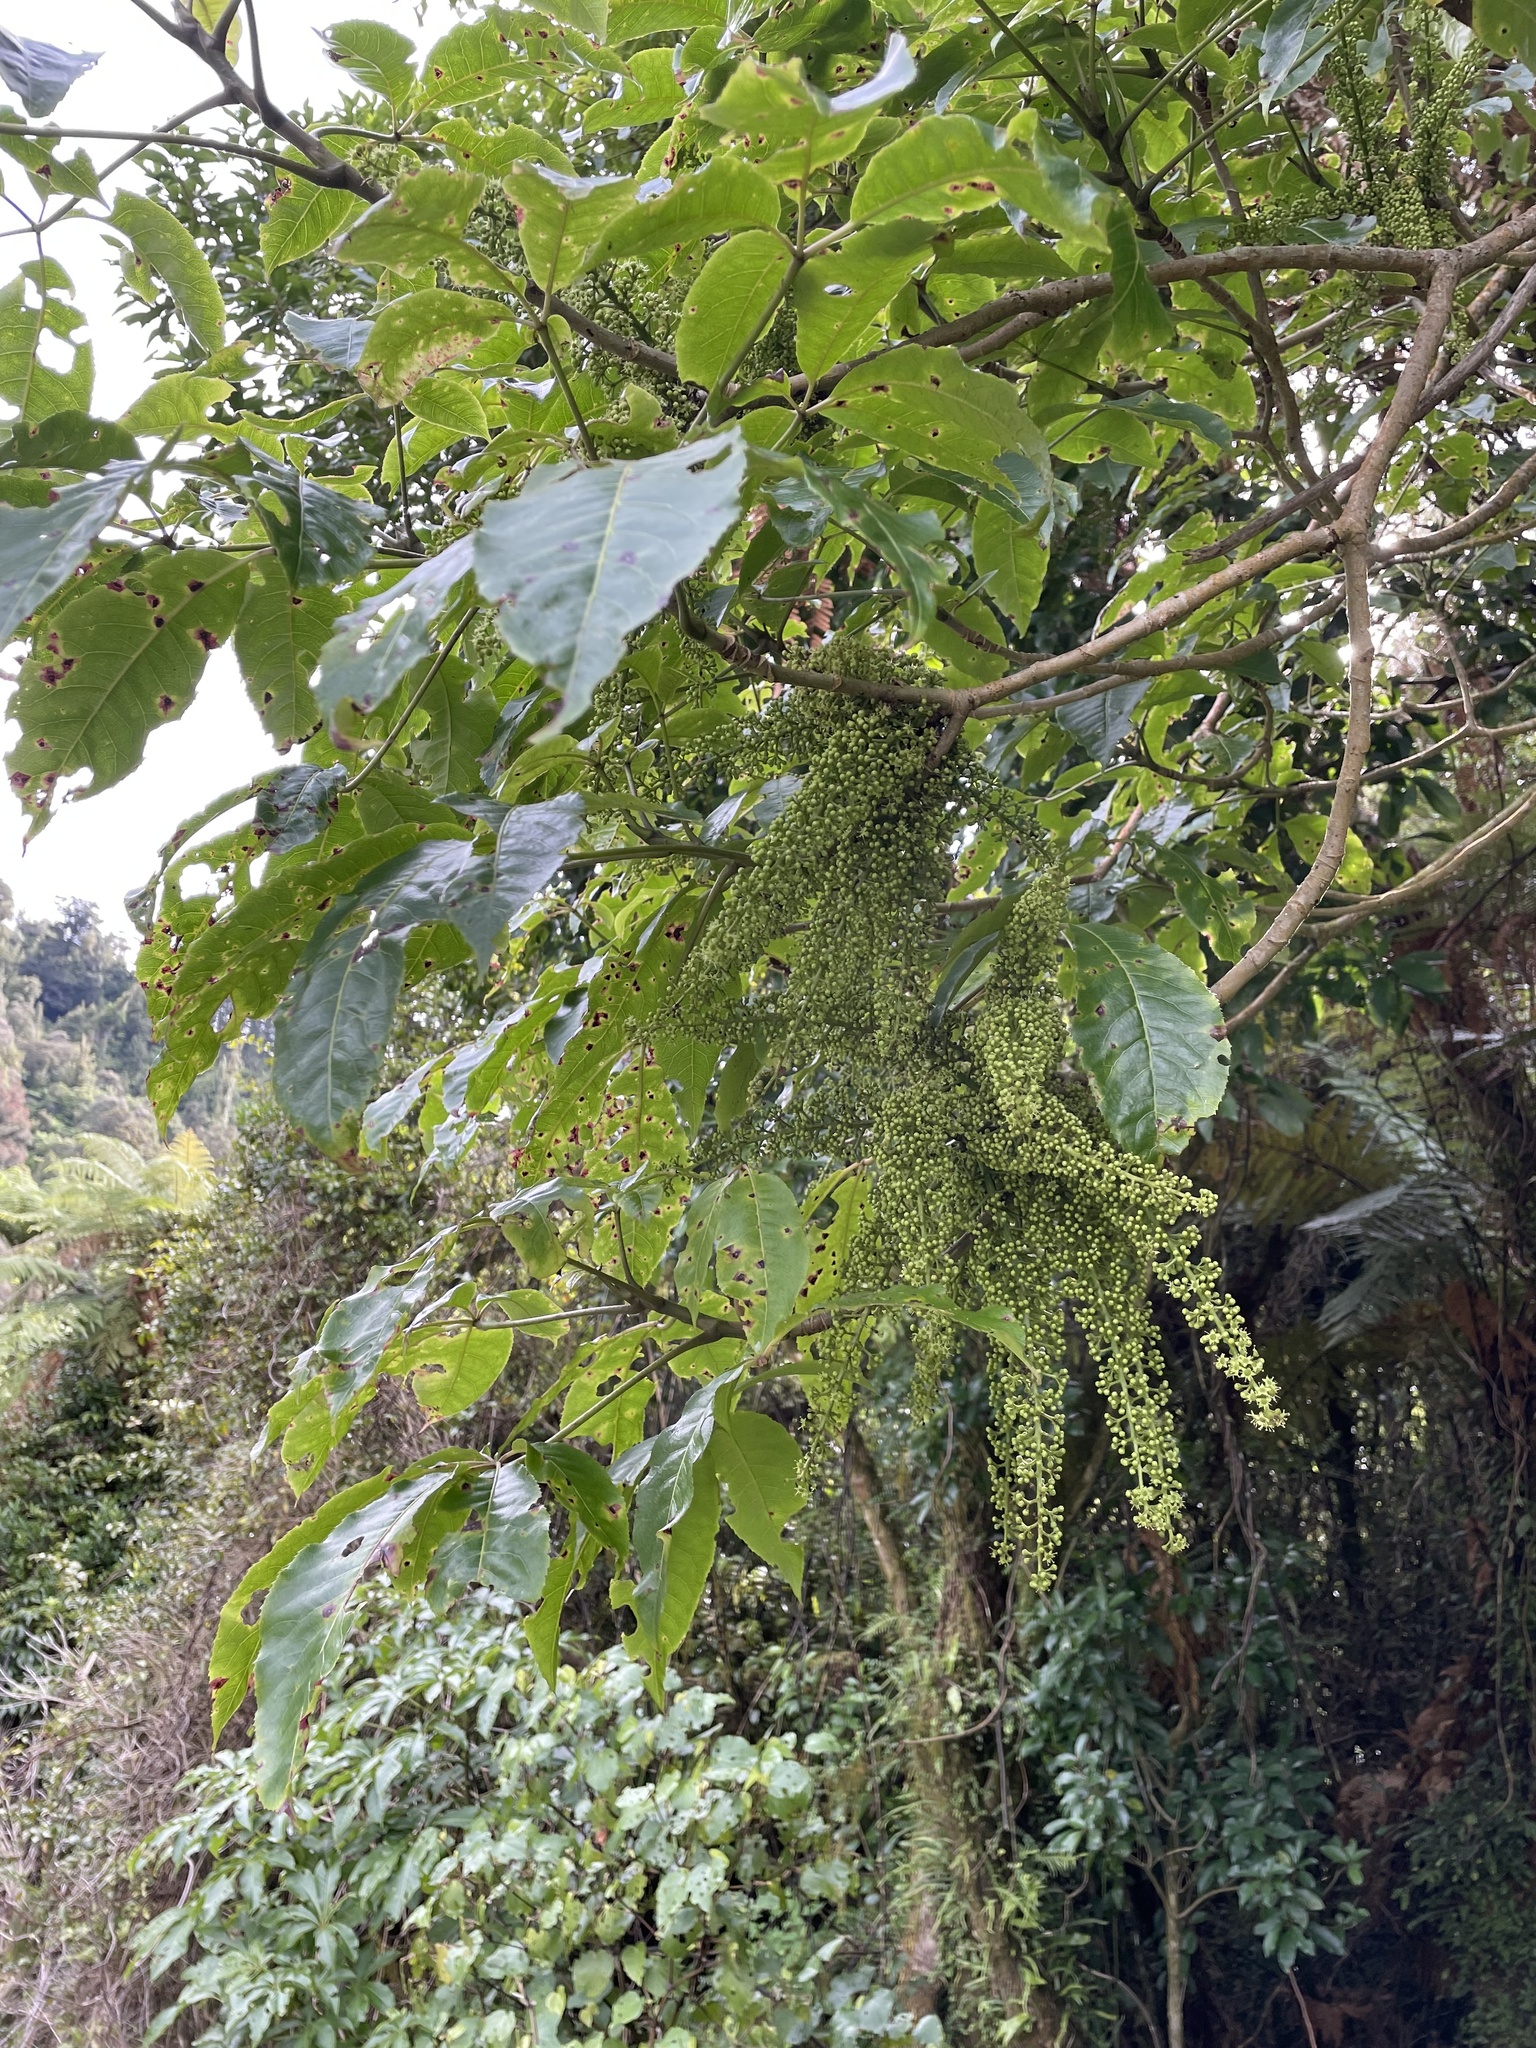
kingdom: Plantae
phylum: Tracheophyta
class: Magnoliopsida
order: Apiales
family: Araliaceae
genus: Schefflera
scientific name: Schefflera digitata
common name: Pate
